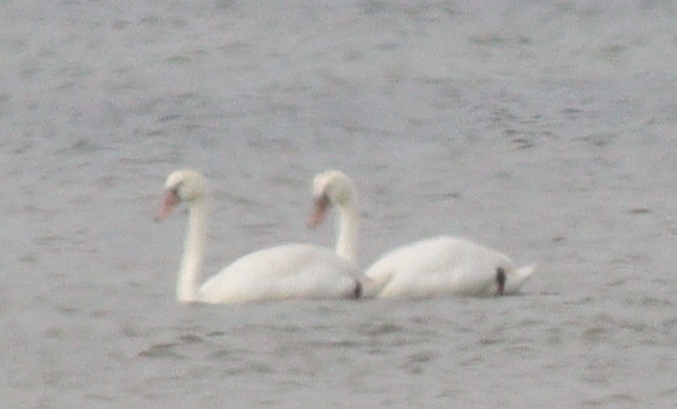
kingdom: Animalia
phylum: Chordata
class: Aves
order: Anseriformes
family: Anatidae
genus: Cygnus
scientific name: Cygnus olor
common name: Mute swan
